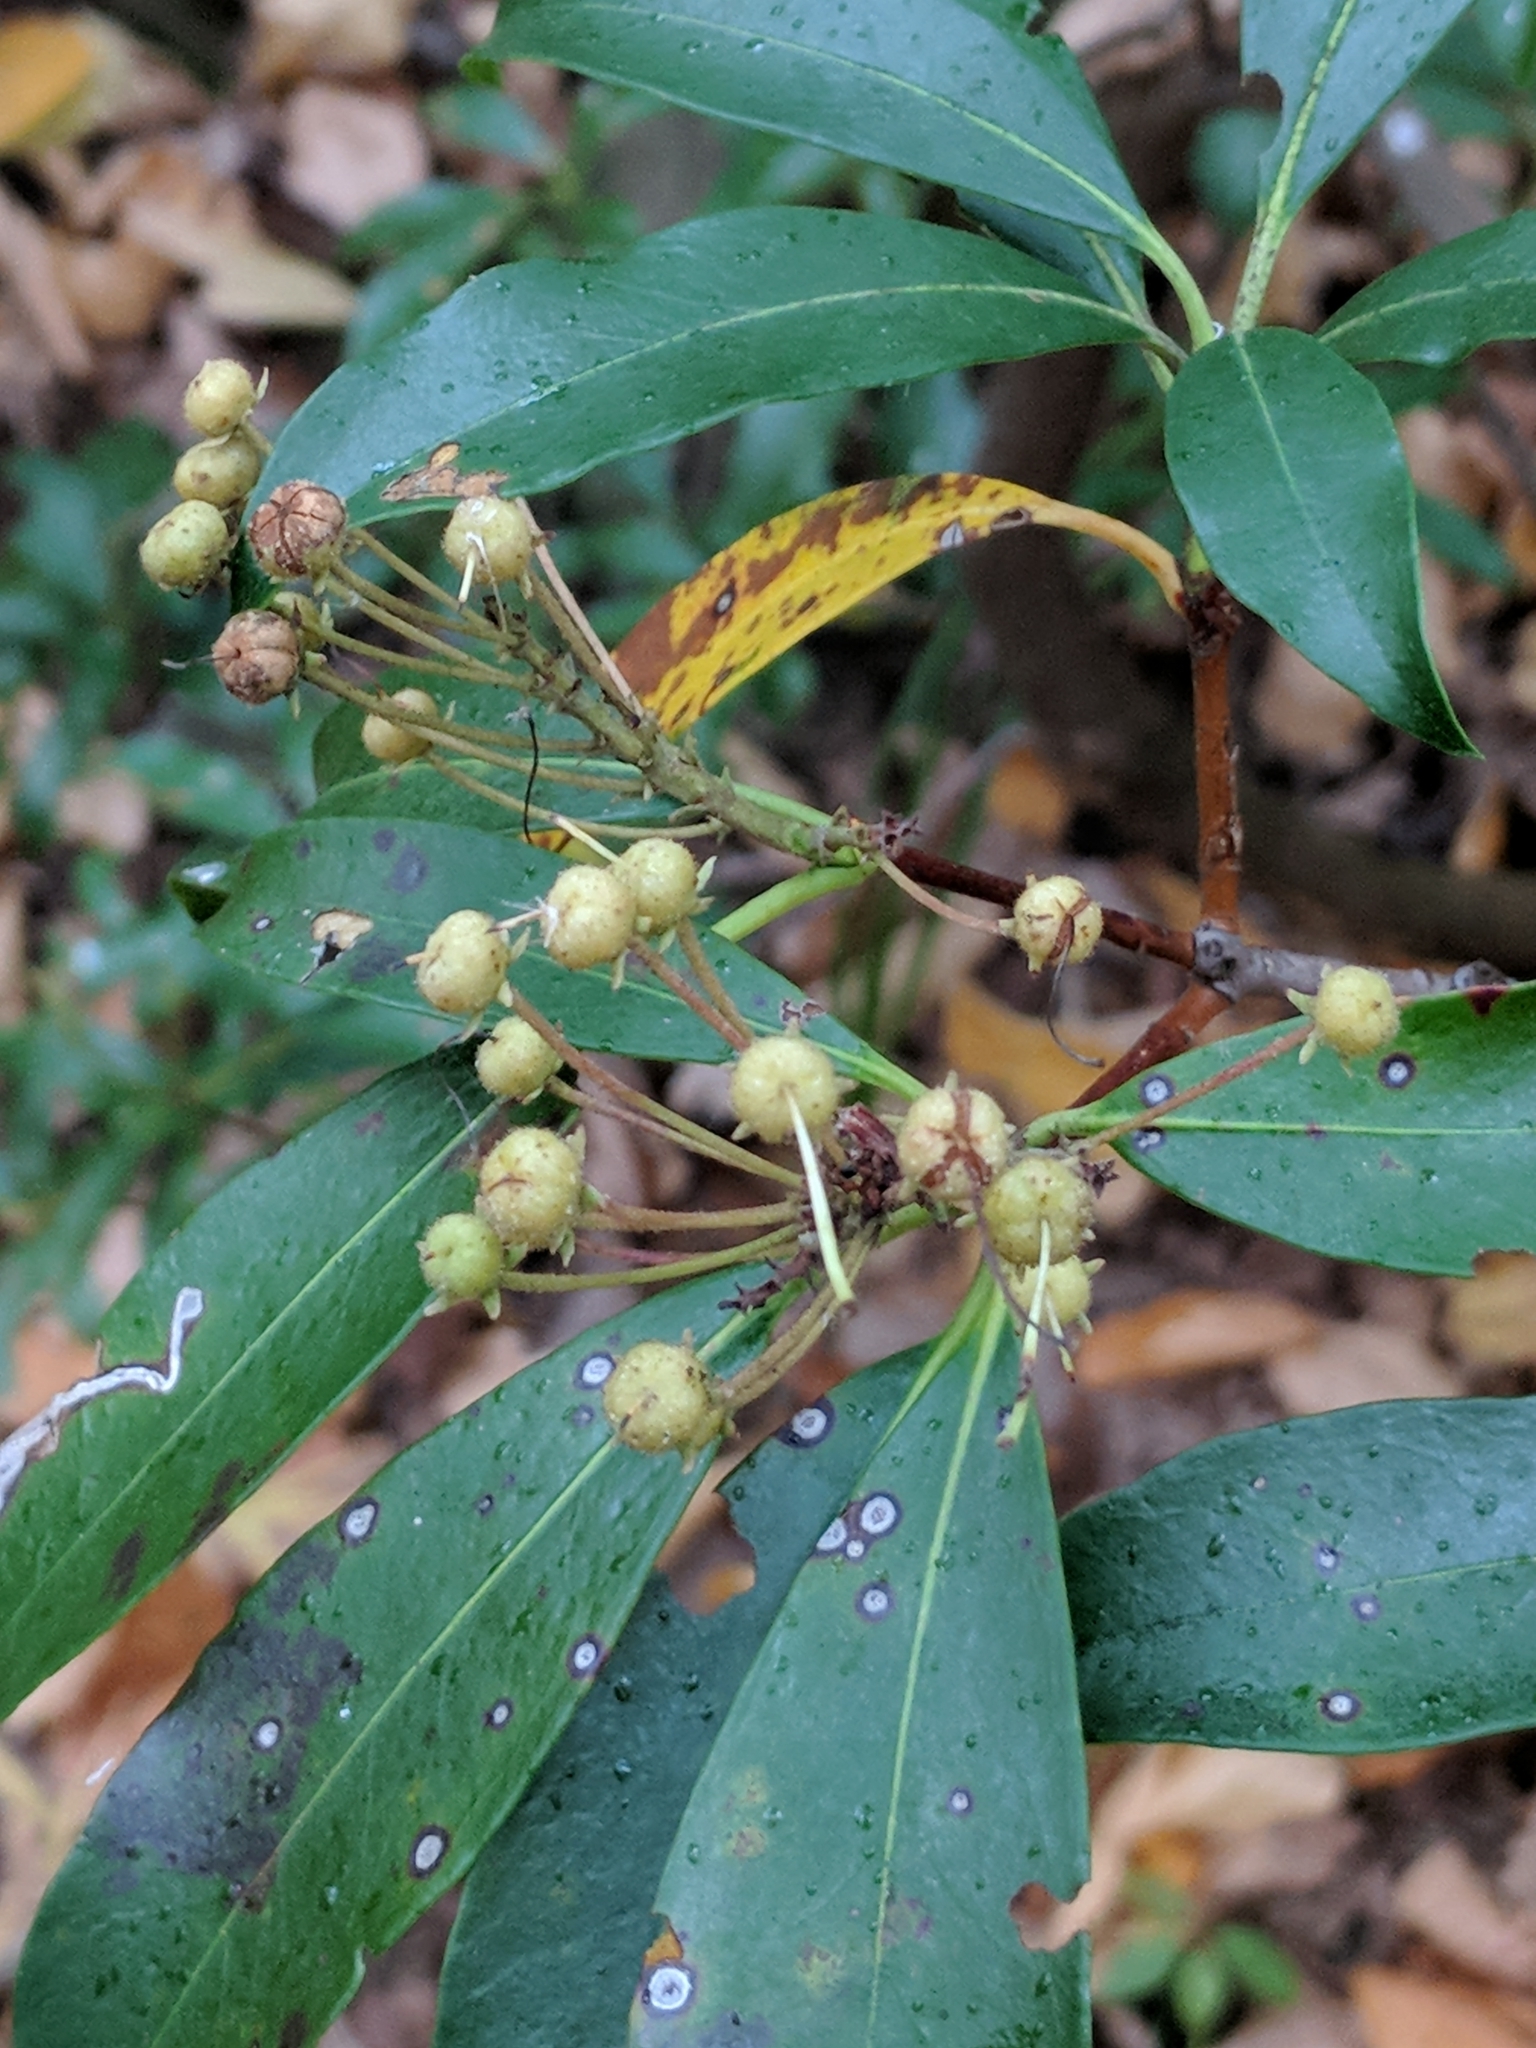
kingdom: Plantae
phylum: Tracheophyta
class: Magnoliopsida
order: Ericales
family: Ericaceae
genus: Kalmia
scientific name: Kalmia latifolia
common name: Mountain-laurel
